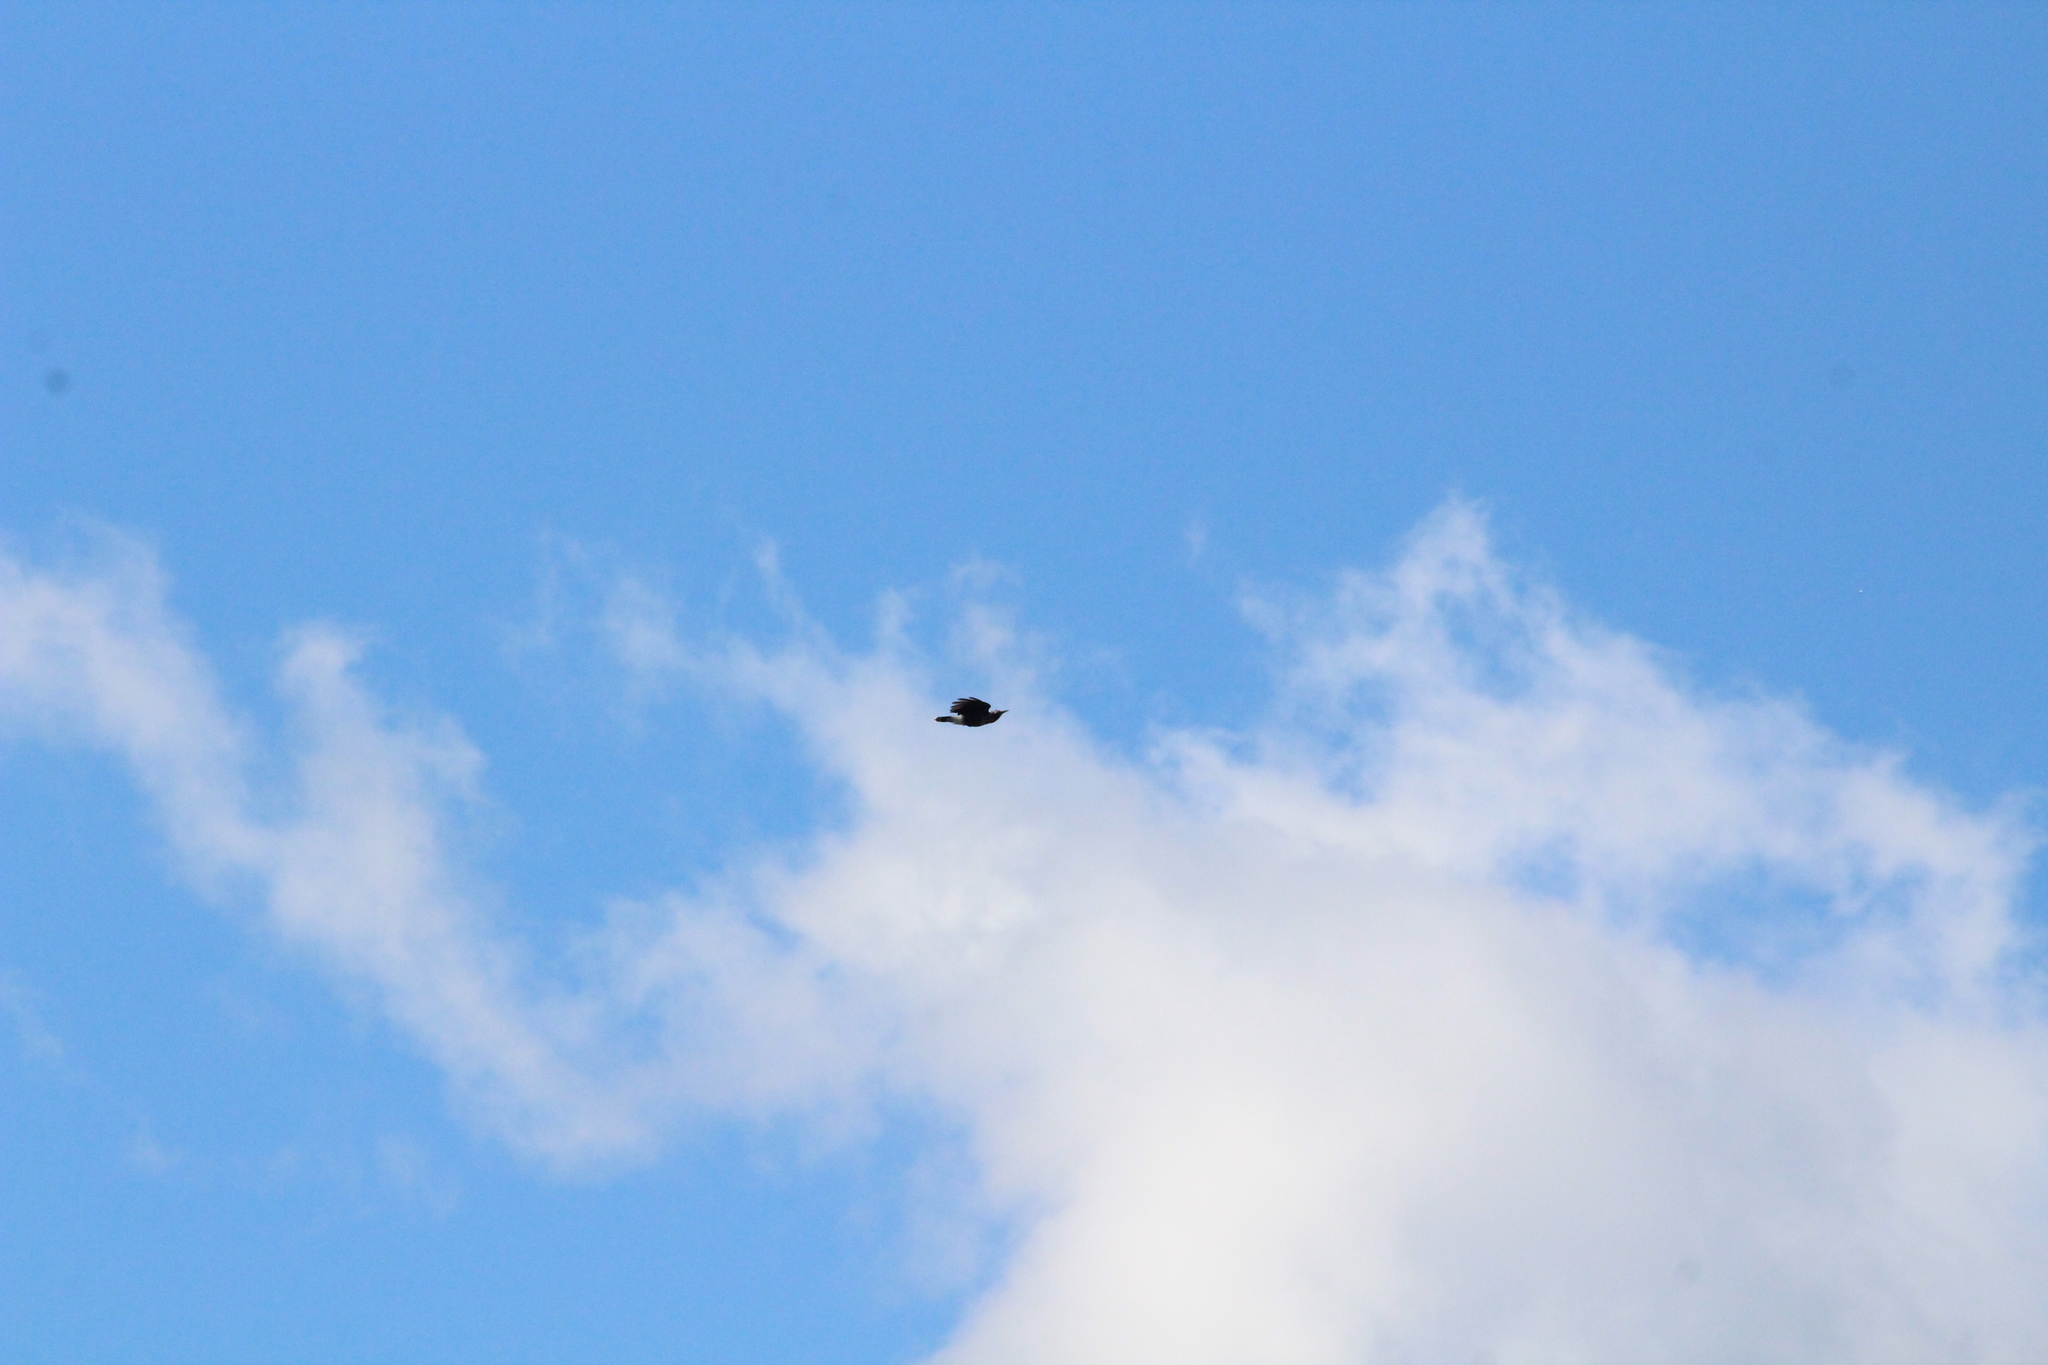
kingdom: Animalia
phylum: Chordata
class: Aves
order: Passeriformes
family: Corvidae
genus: Nucifraga
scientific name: Nucifraga caryocatactes
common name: Spotted nutcracker
